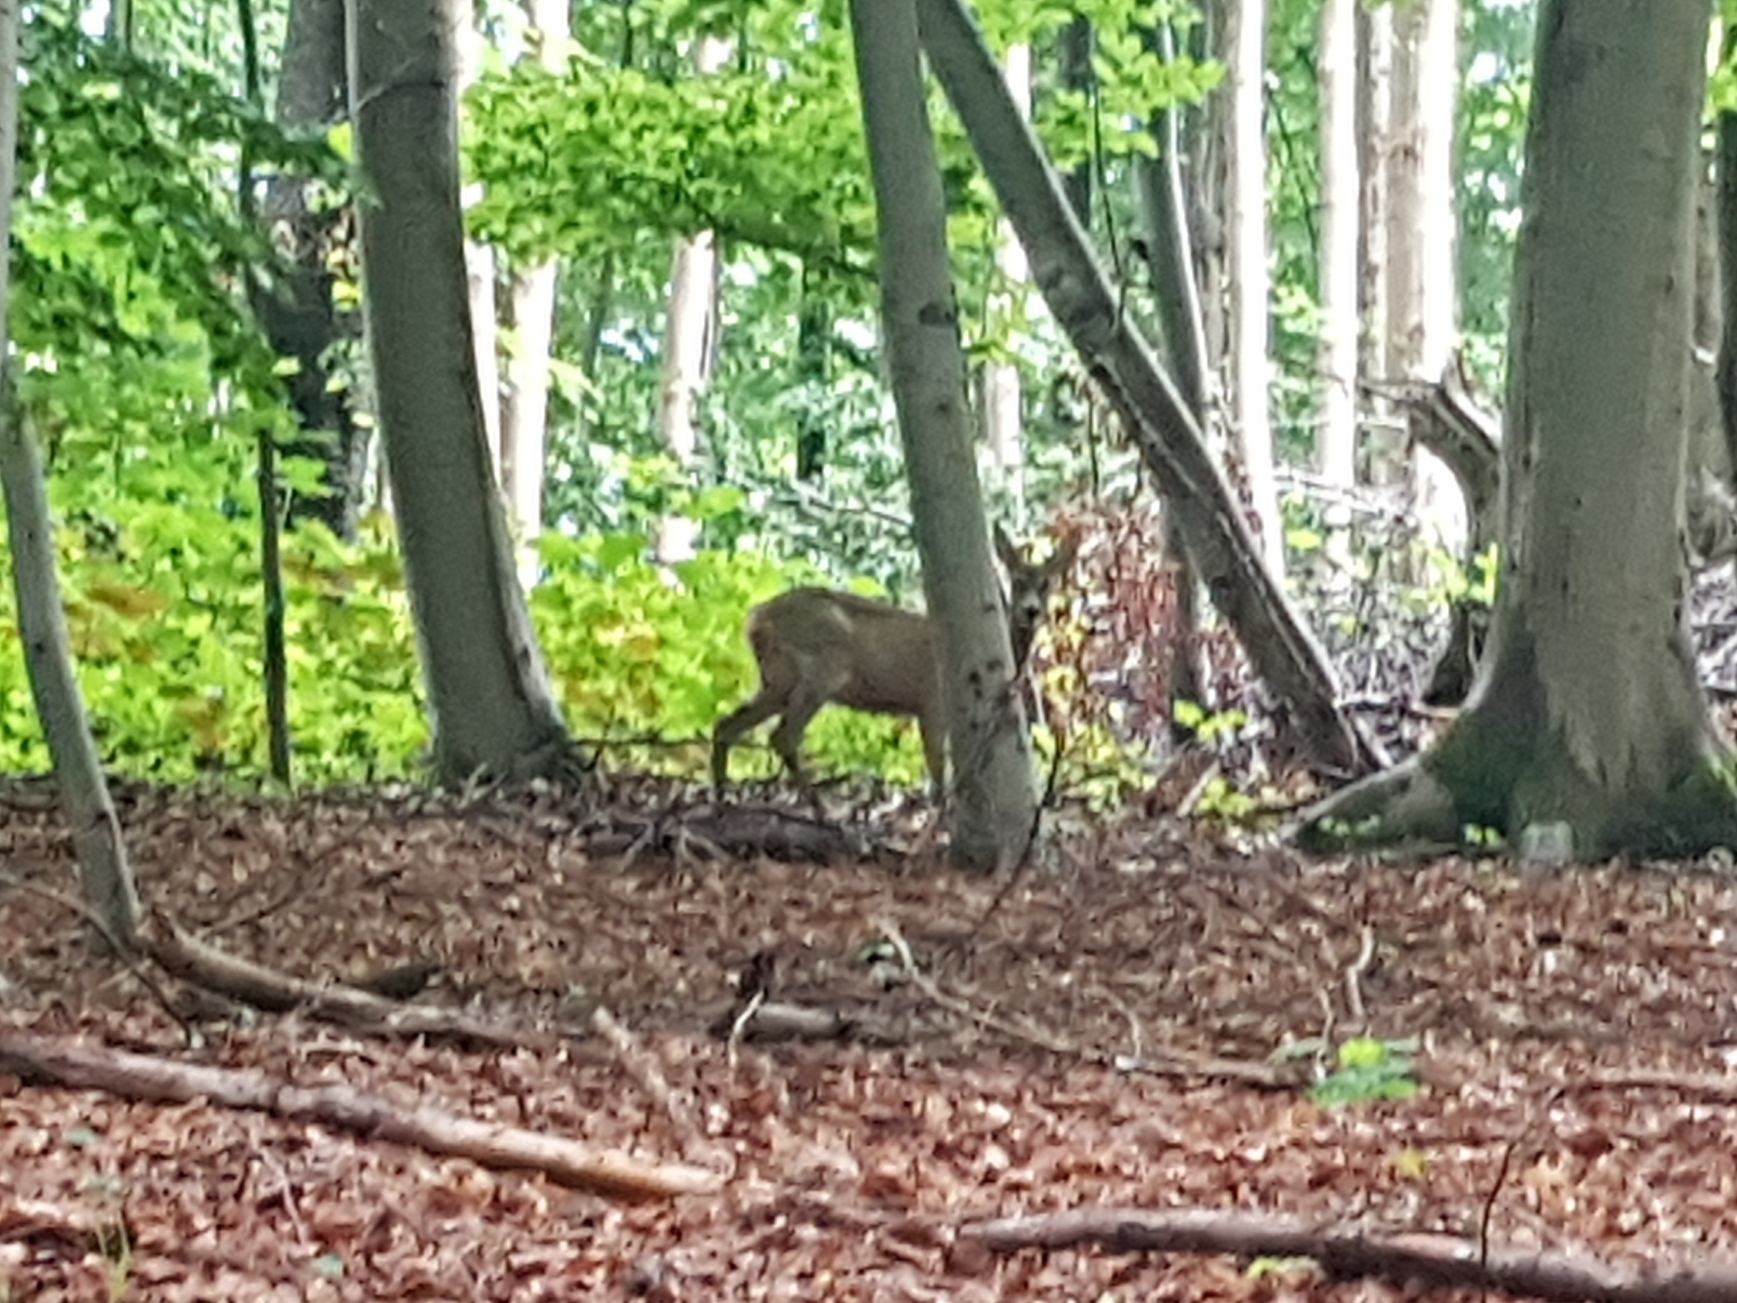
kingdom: Animalia
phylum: Chordata
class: Mammalia
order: Artiodactyla
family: Cervidae
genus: Capreolus
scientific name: Capreolus capreolus
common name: Western roe deer
